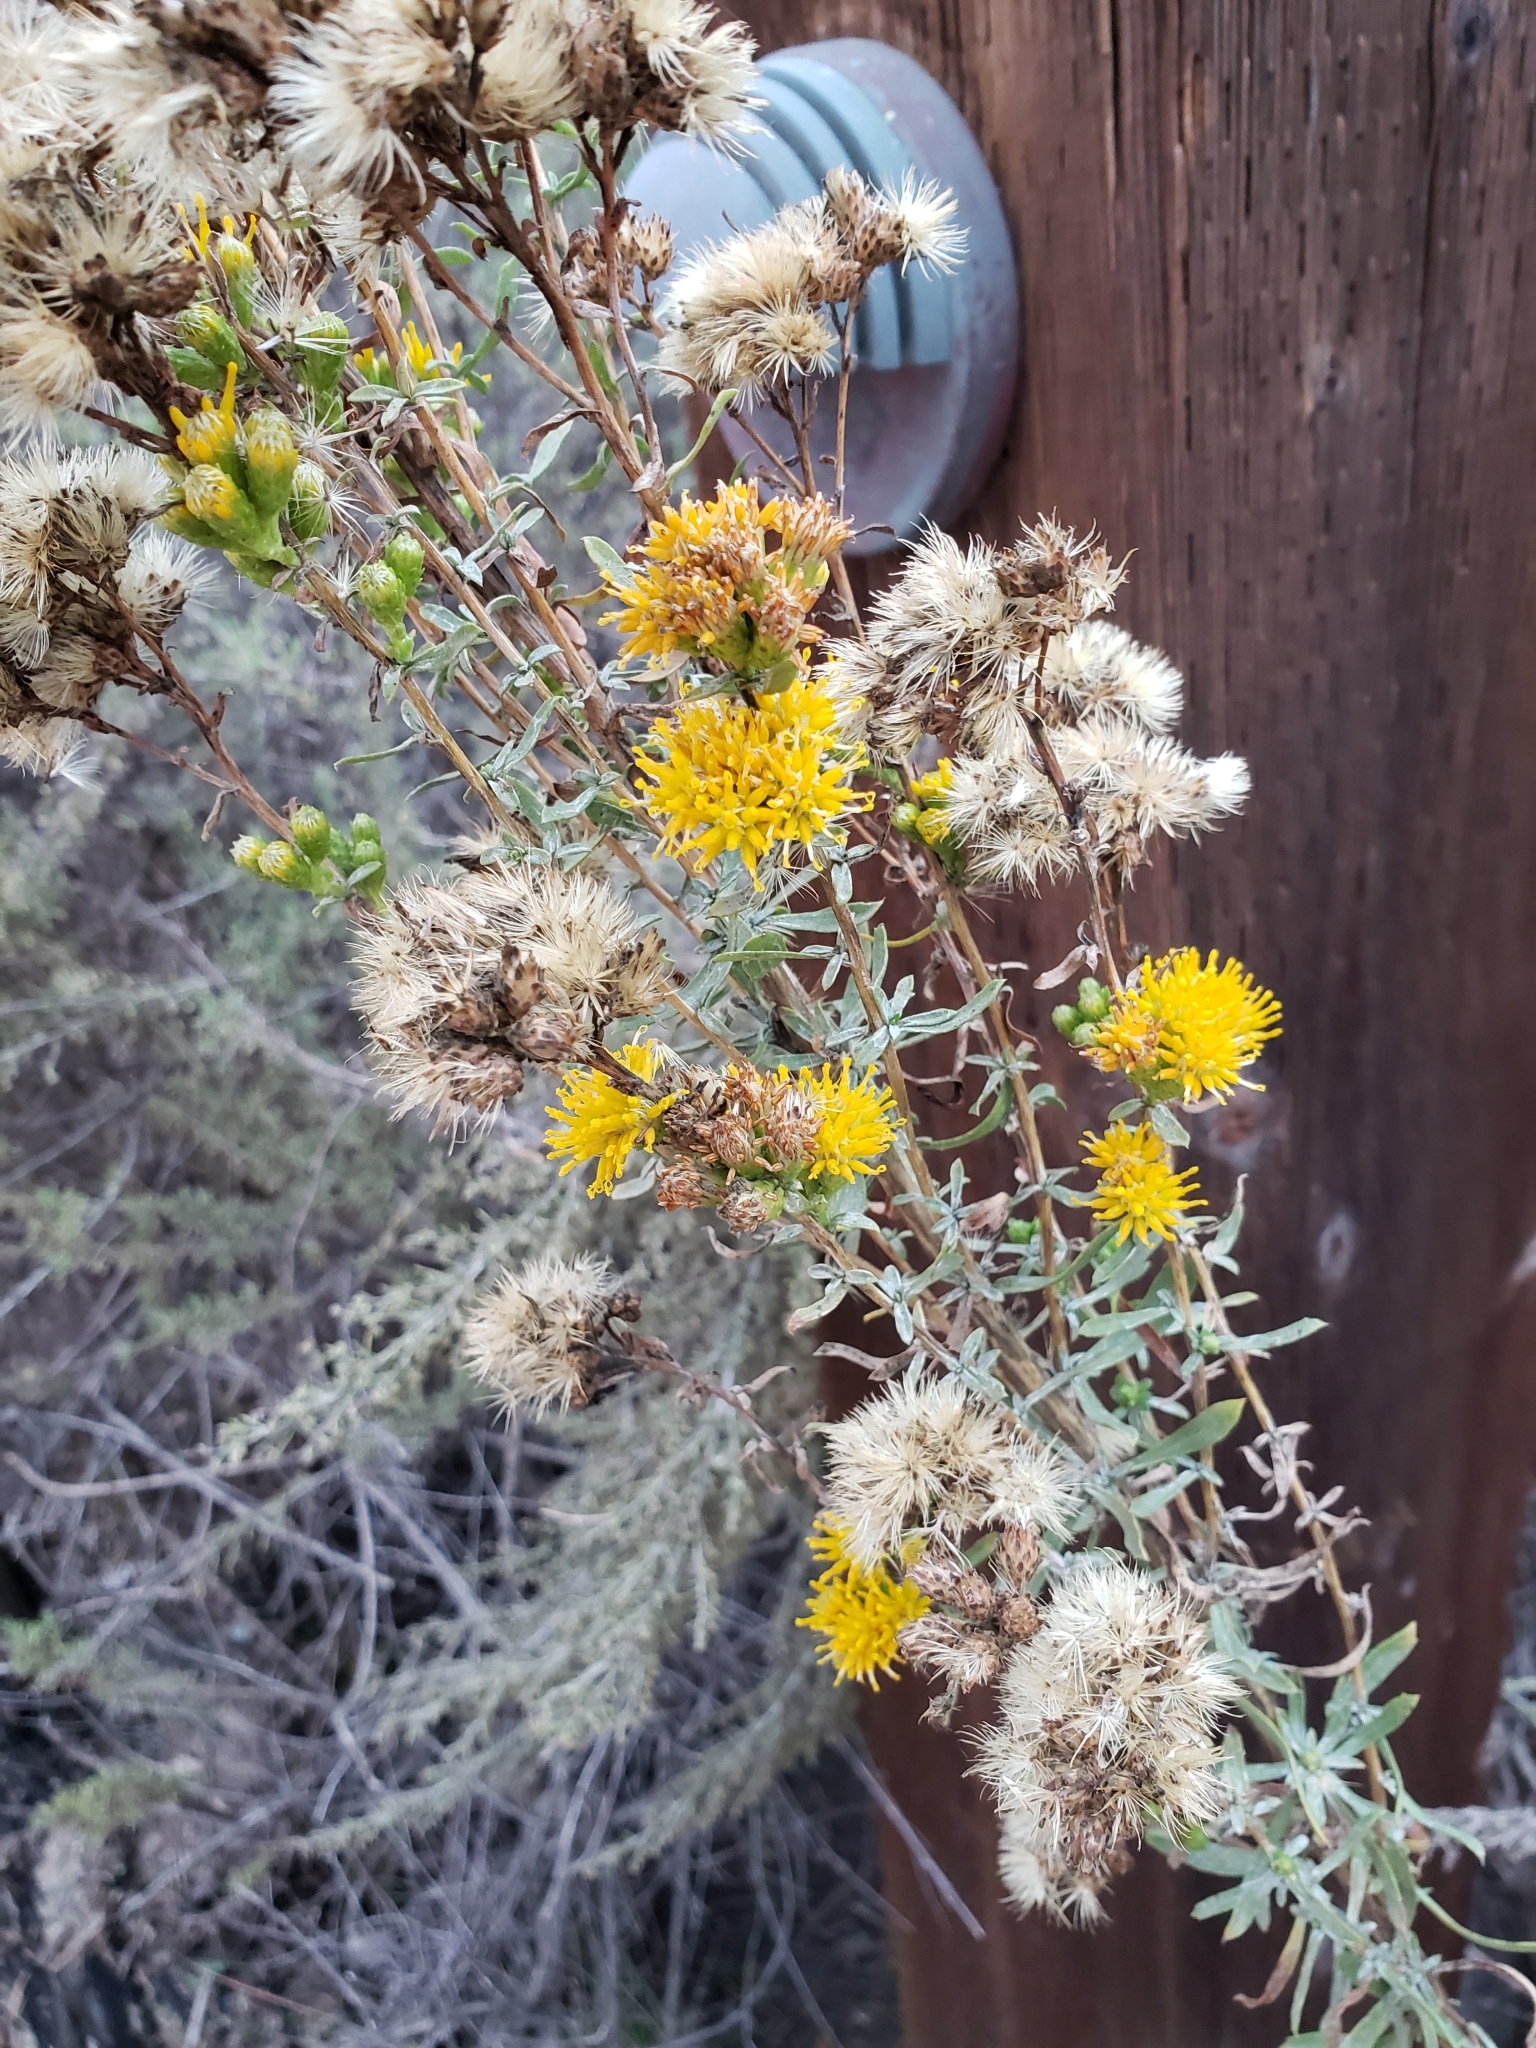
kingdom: Plantae
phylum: Tracheophyta
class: Magnoliopsida
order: Asterales
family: Asteraceae
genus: Isocoma
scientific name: Isocoma menziesii
